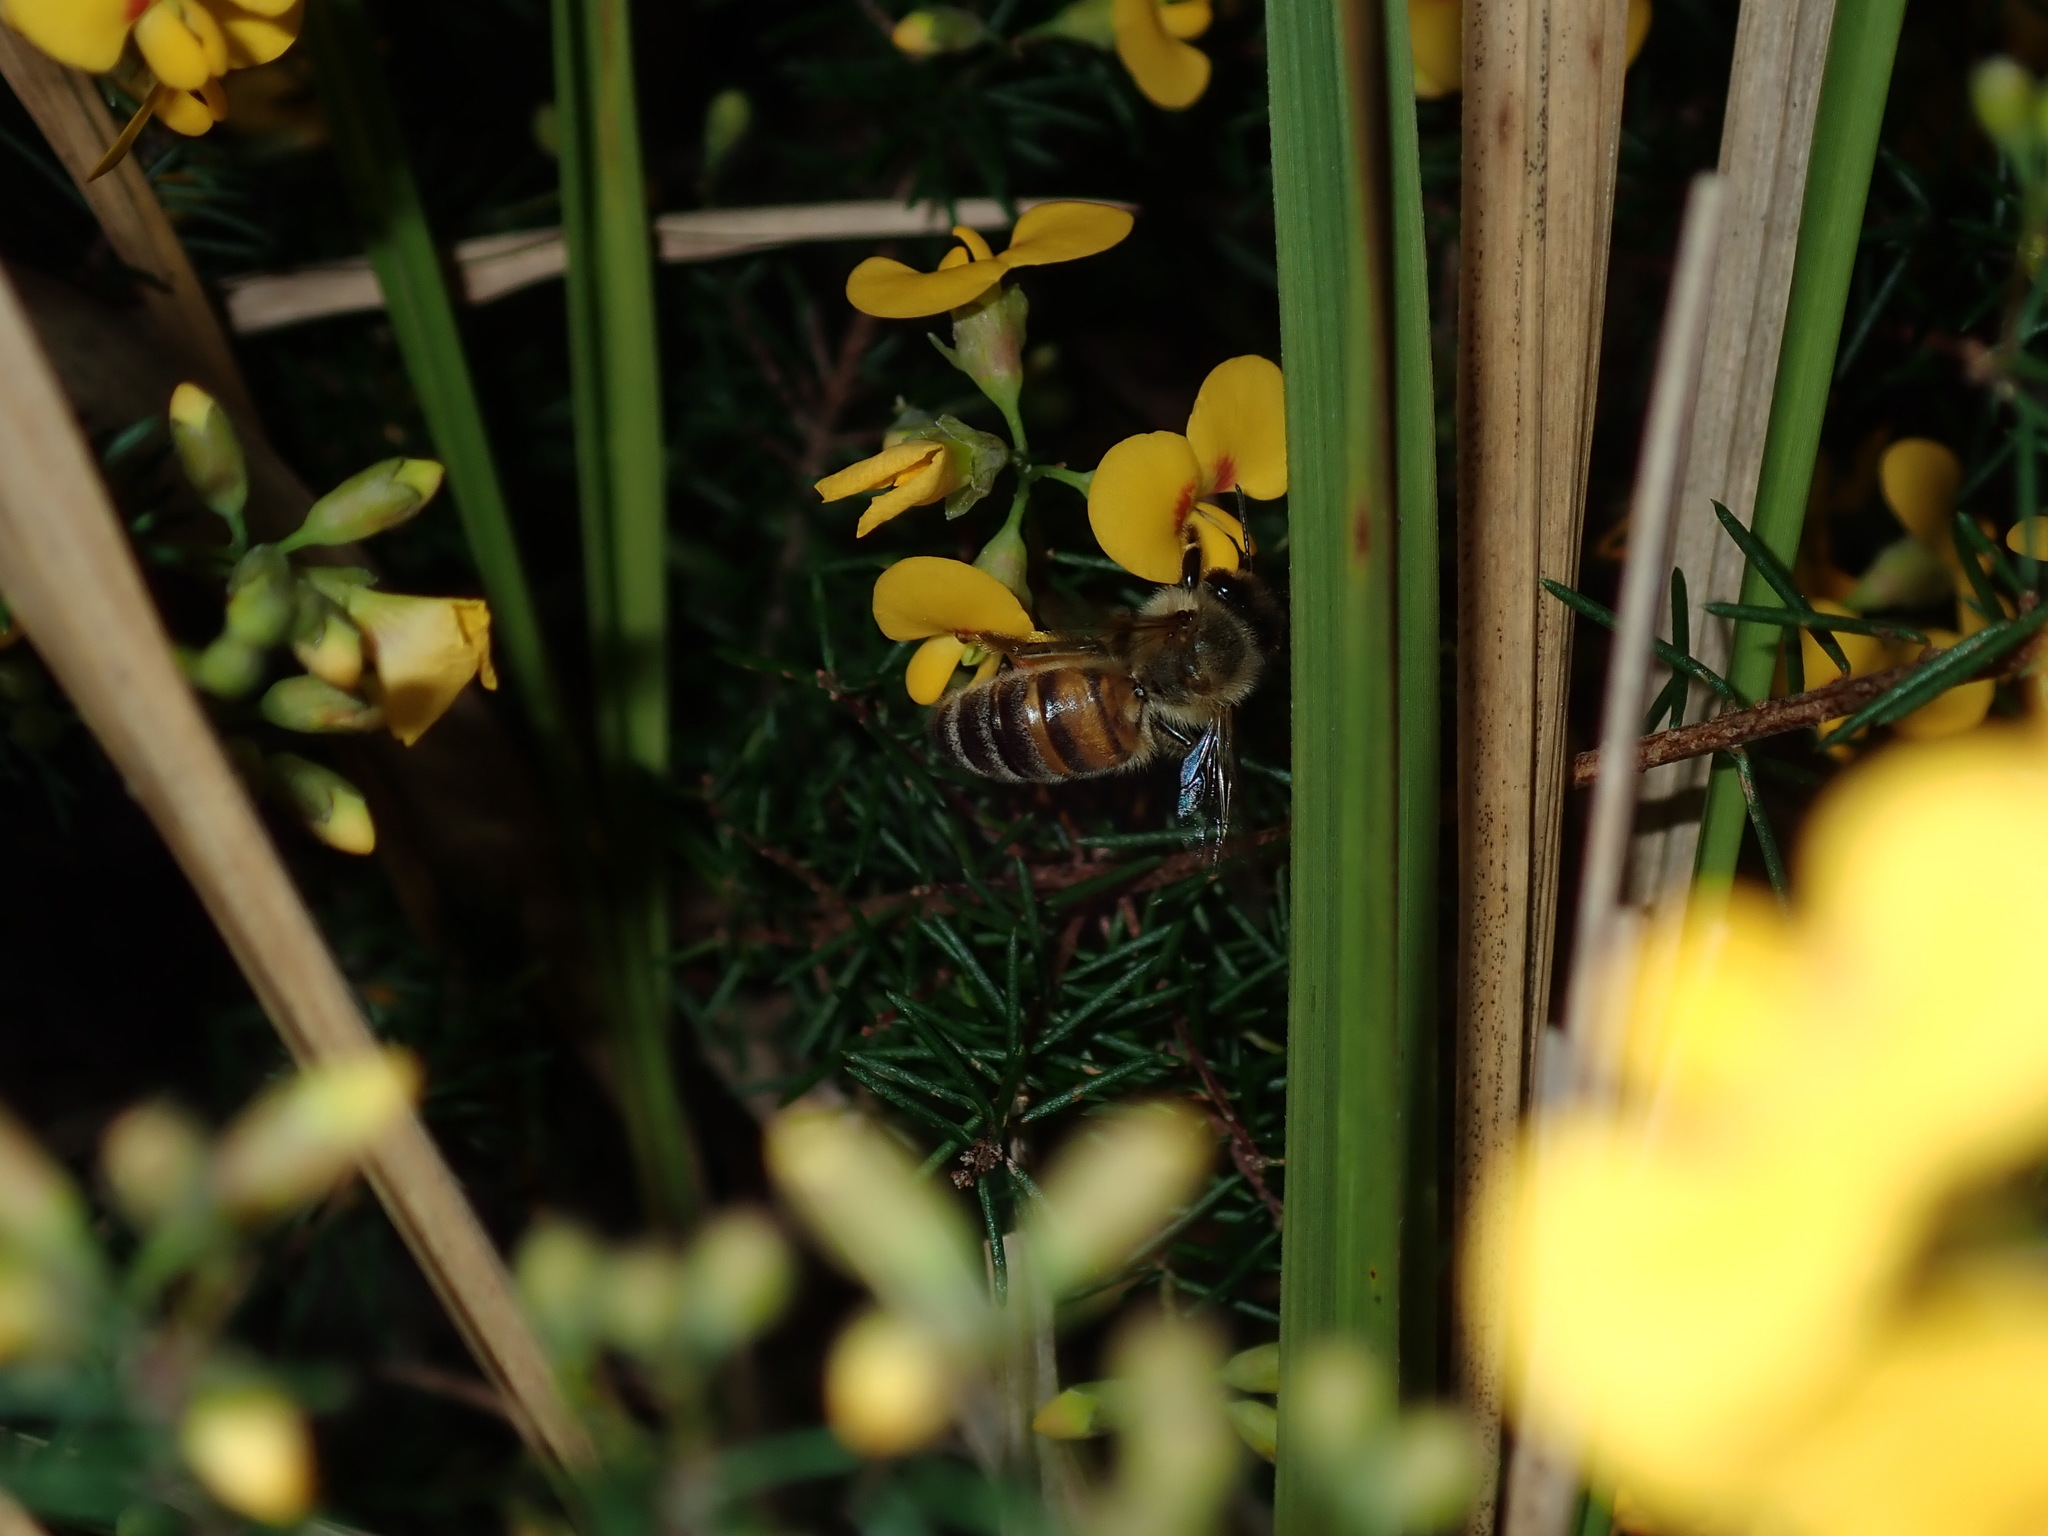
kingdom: Animalia
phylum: Arthropoda
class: Insecta
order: Hymenoptera
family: Apidae
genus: Apis
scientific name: Apis mellifera
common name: Honey bee
